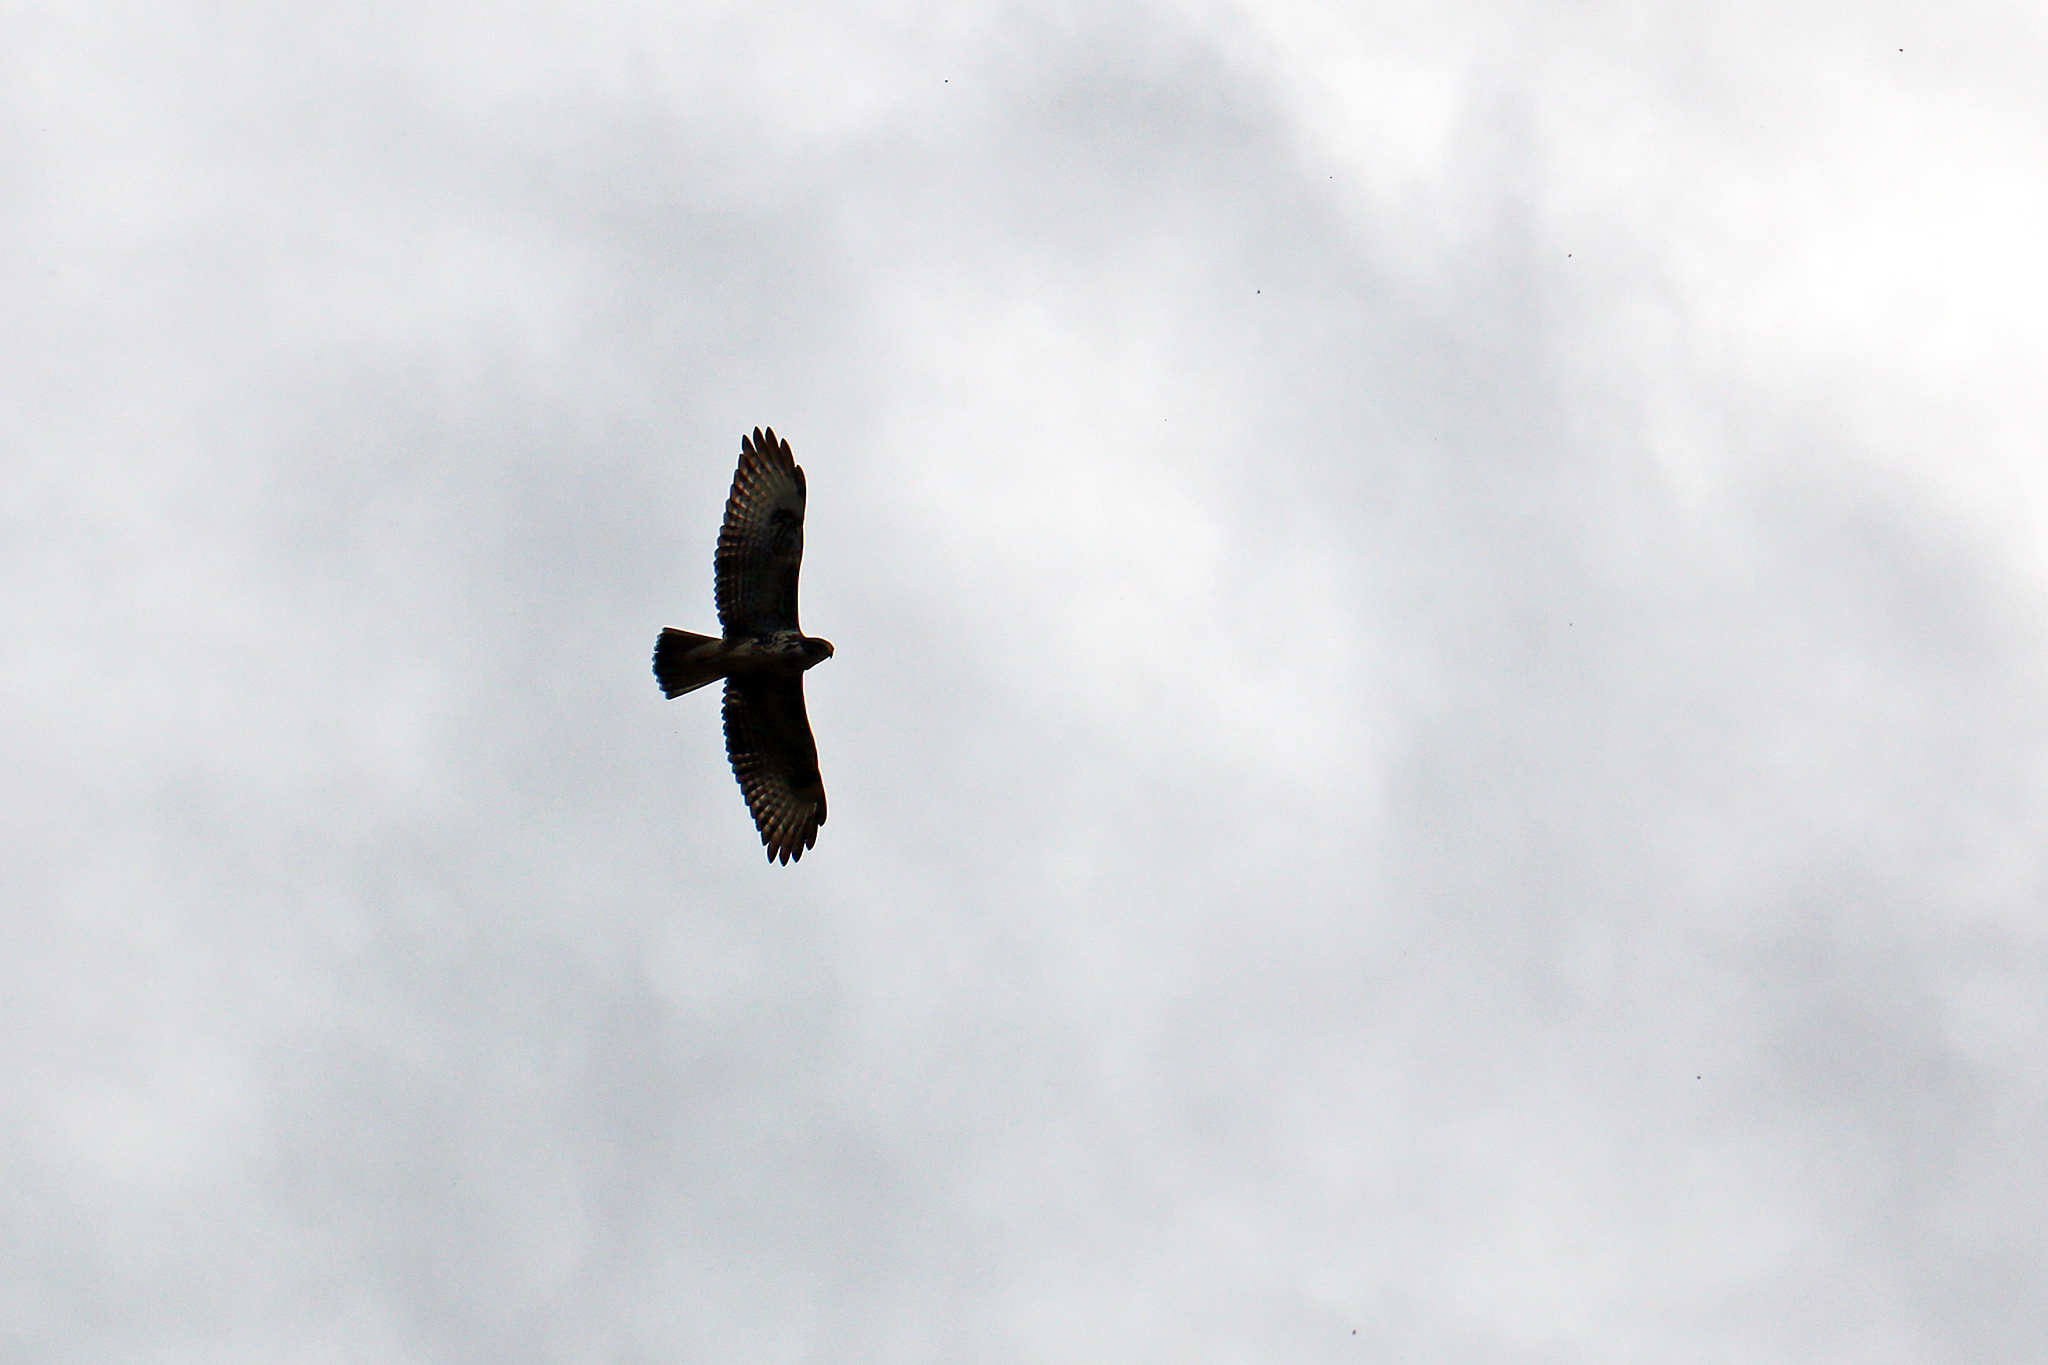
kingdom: Animalia
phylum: Chordata
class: Aves
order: Accipitriformes
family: Accipitridae
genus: Buteo
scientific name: Buteo buteo
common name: Common buzzard
